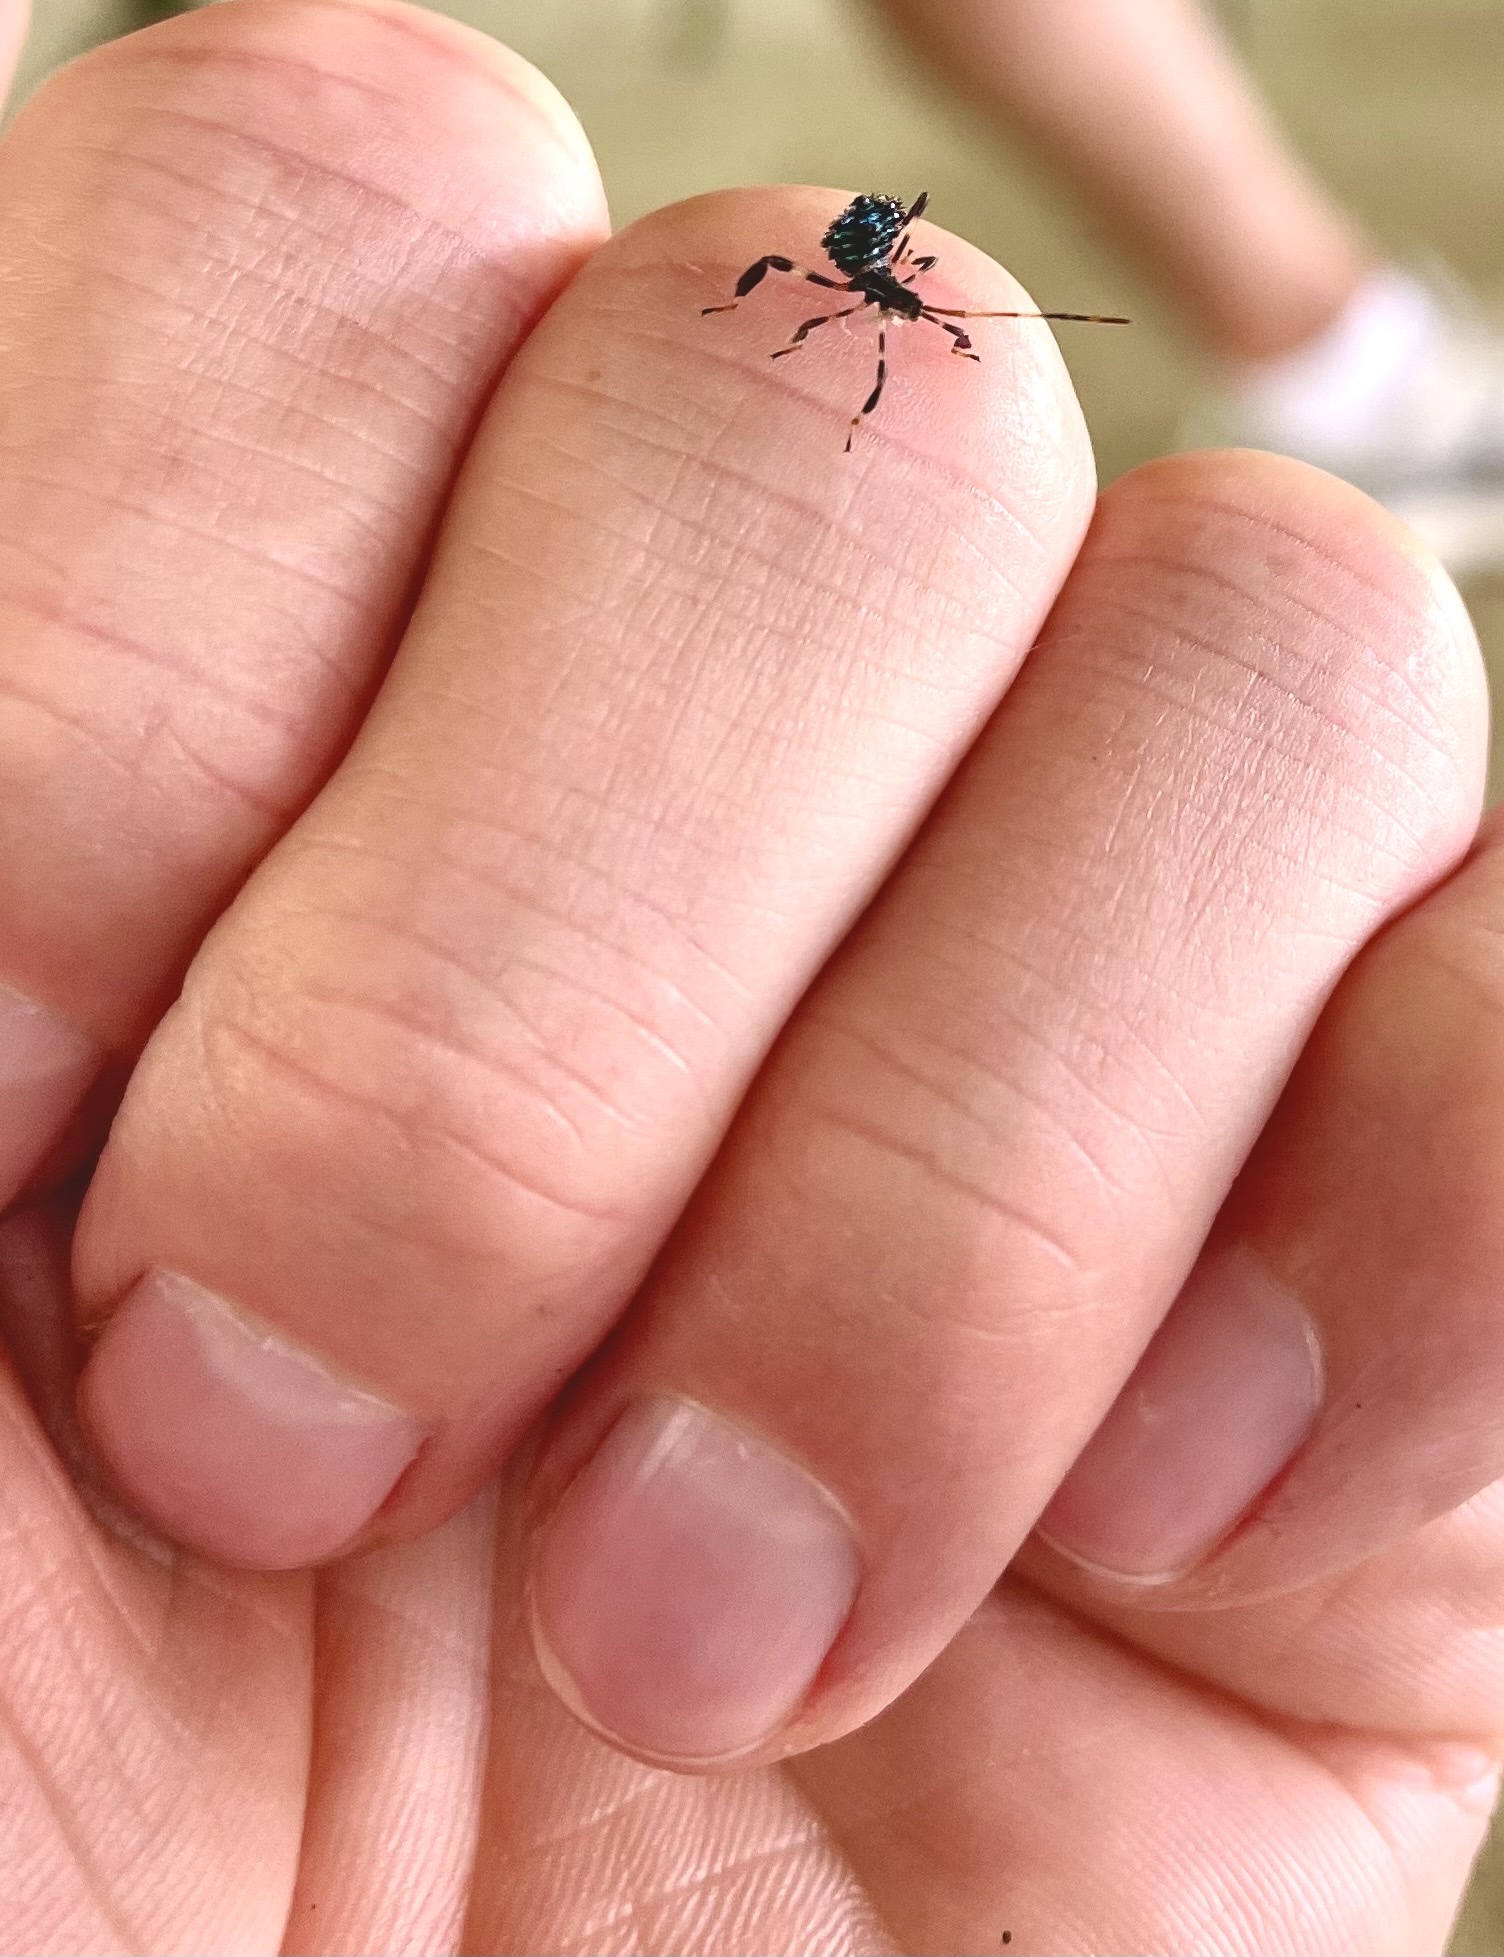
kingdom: Animalia
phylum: Arthropoda
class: Insecta
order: Hemiptera
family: Coreidae
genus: Acanthocephala
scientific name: Acanthocephala terminalis
